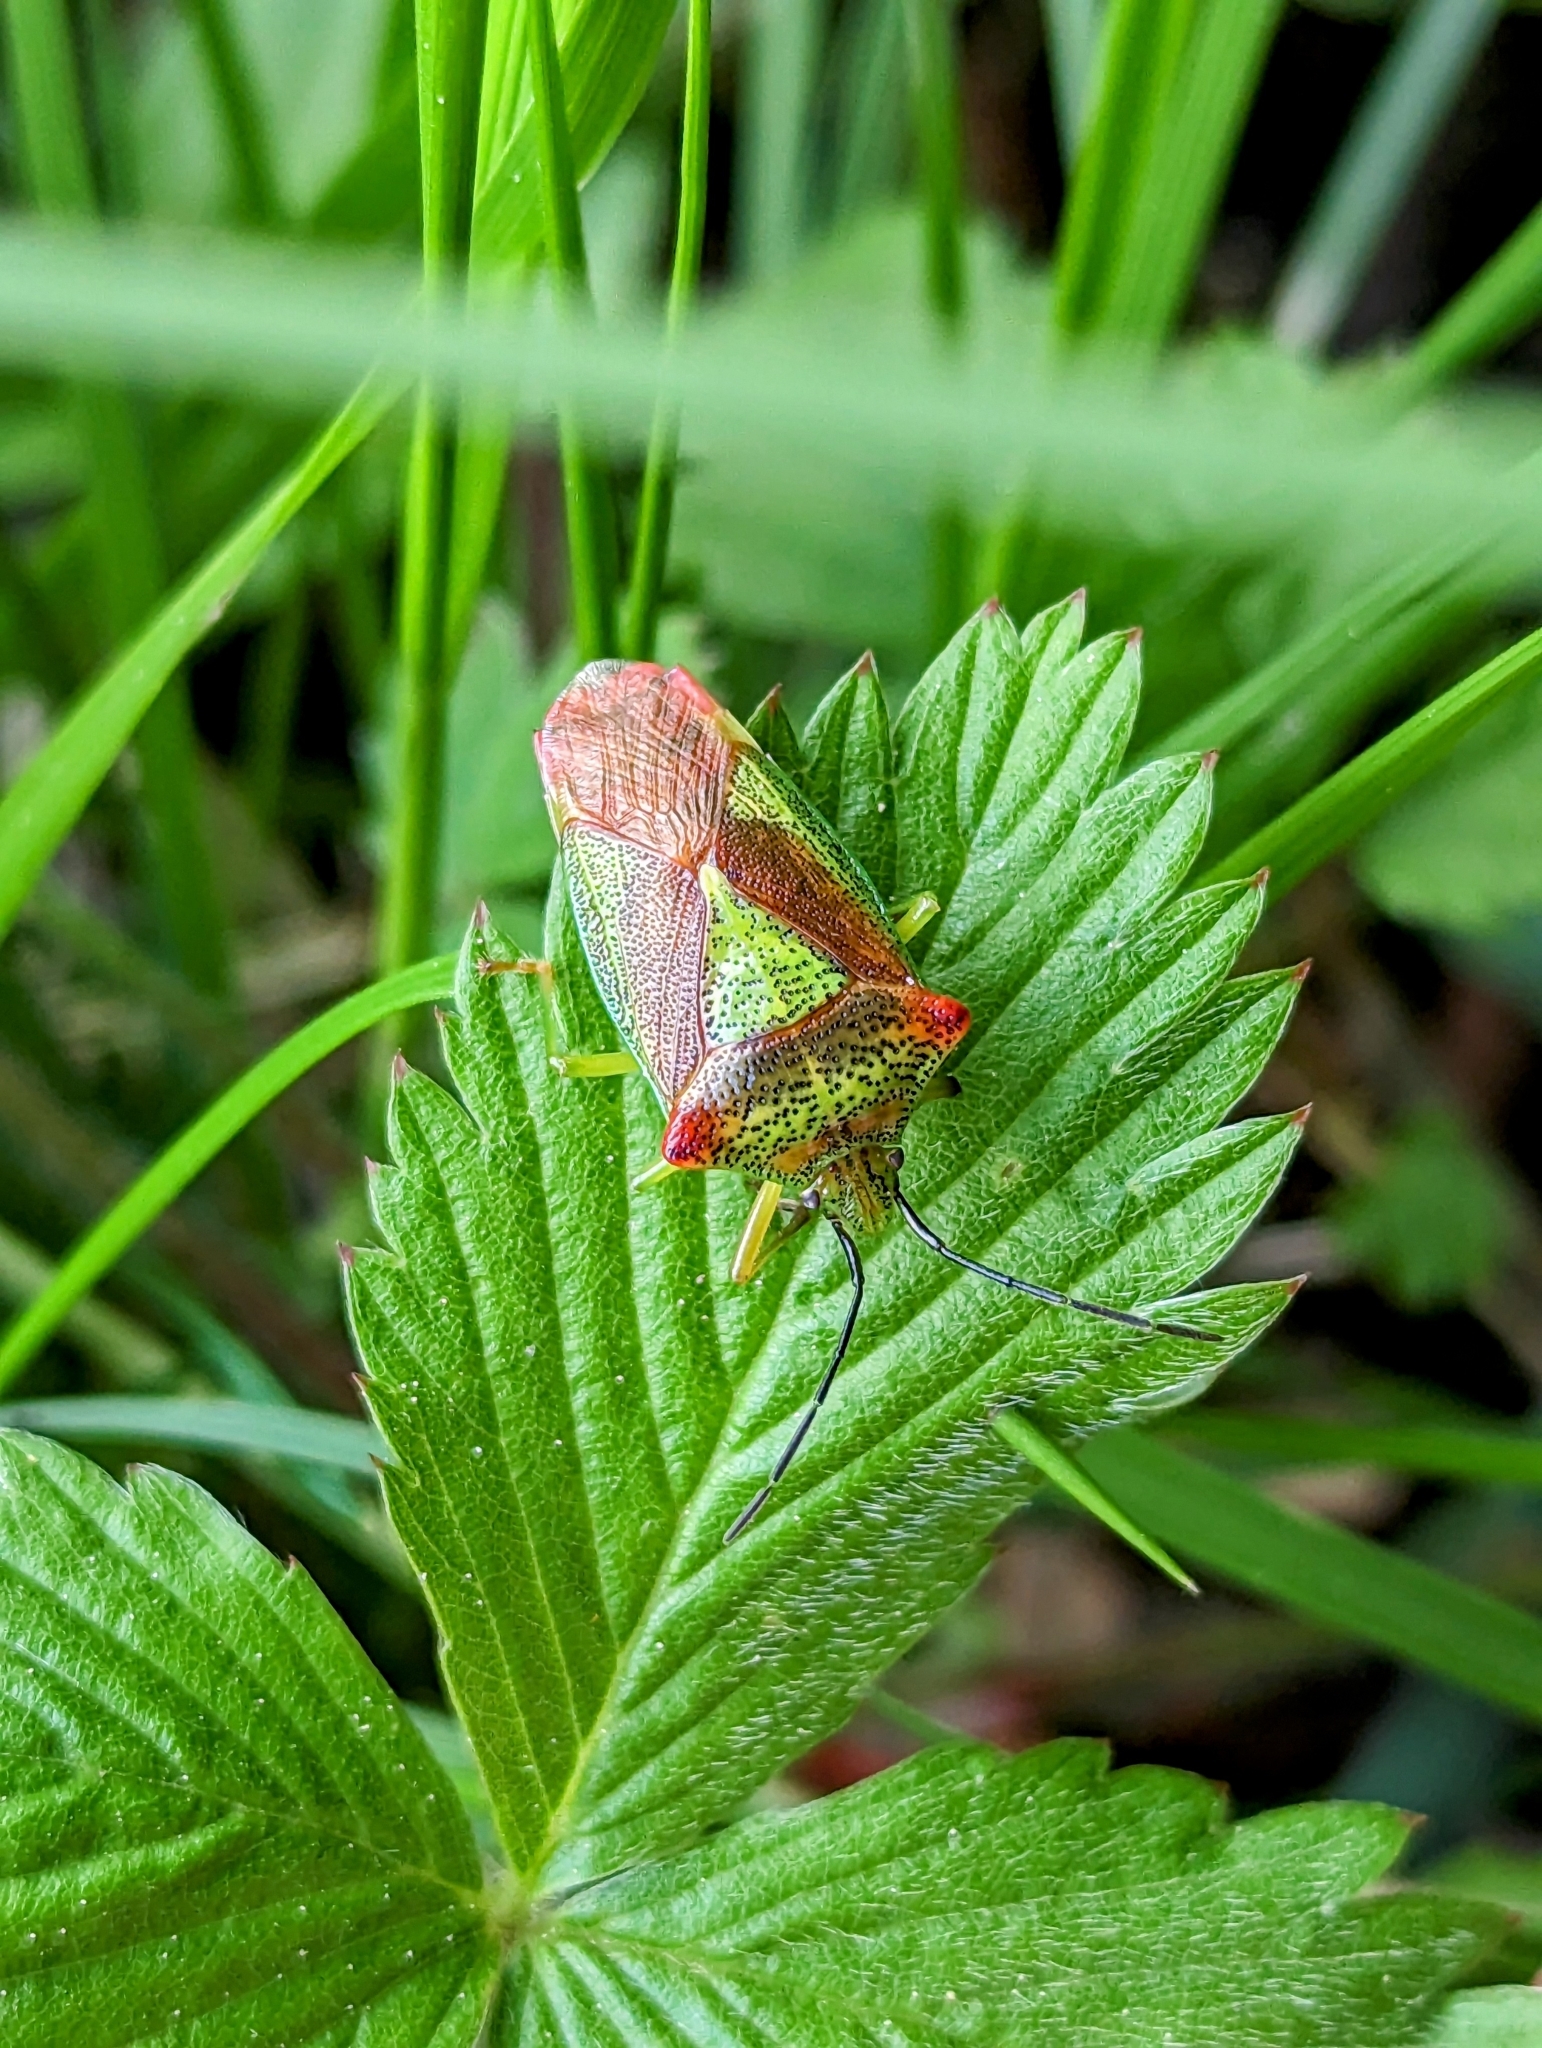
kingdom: Animalia
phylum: Arthropoda
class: Insecta
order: Hemiptera
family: Acanthosomatidae
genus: Acanthosoma
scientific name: Acanthosoma haemorrhoidale
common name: Hawthorn shieldbug
